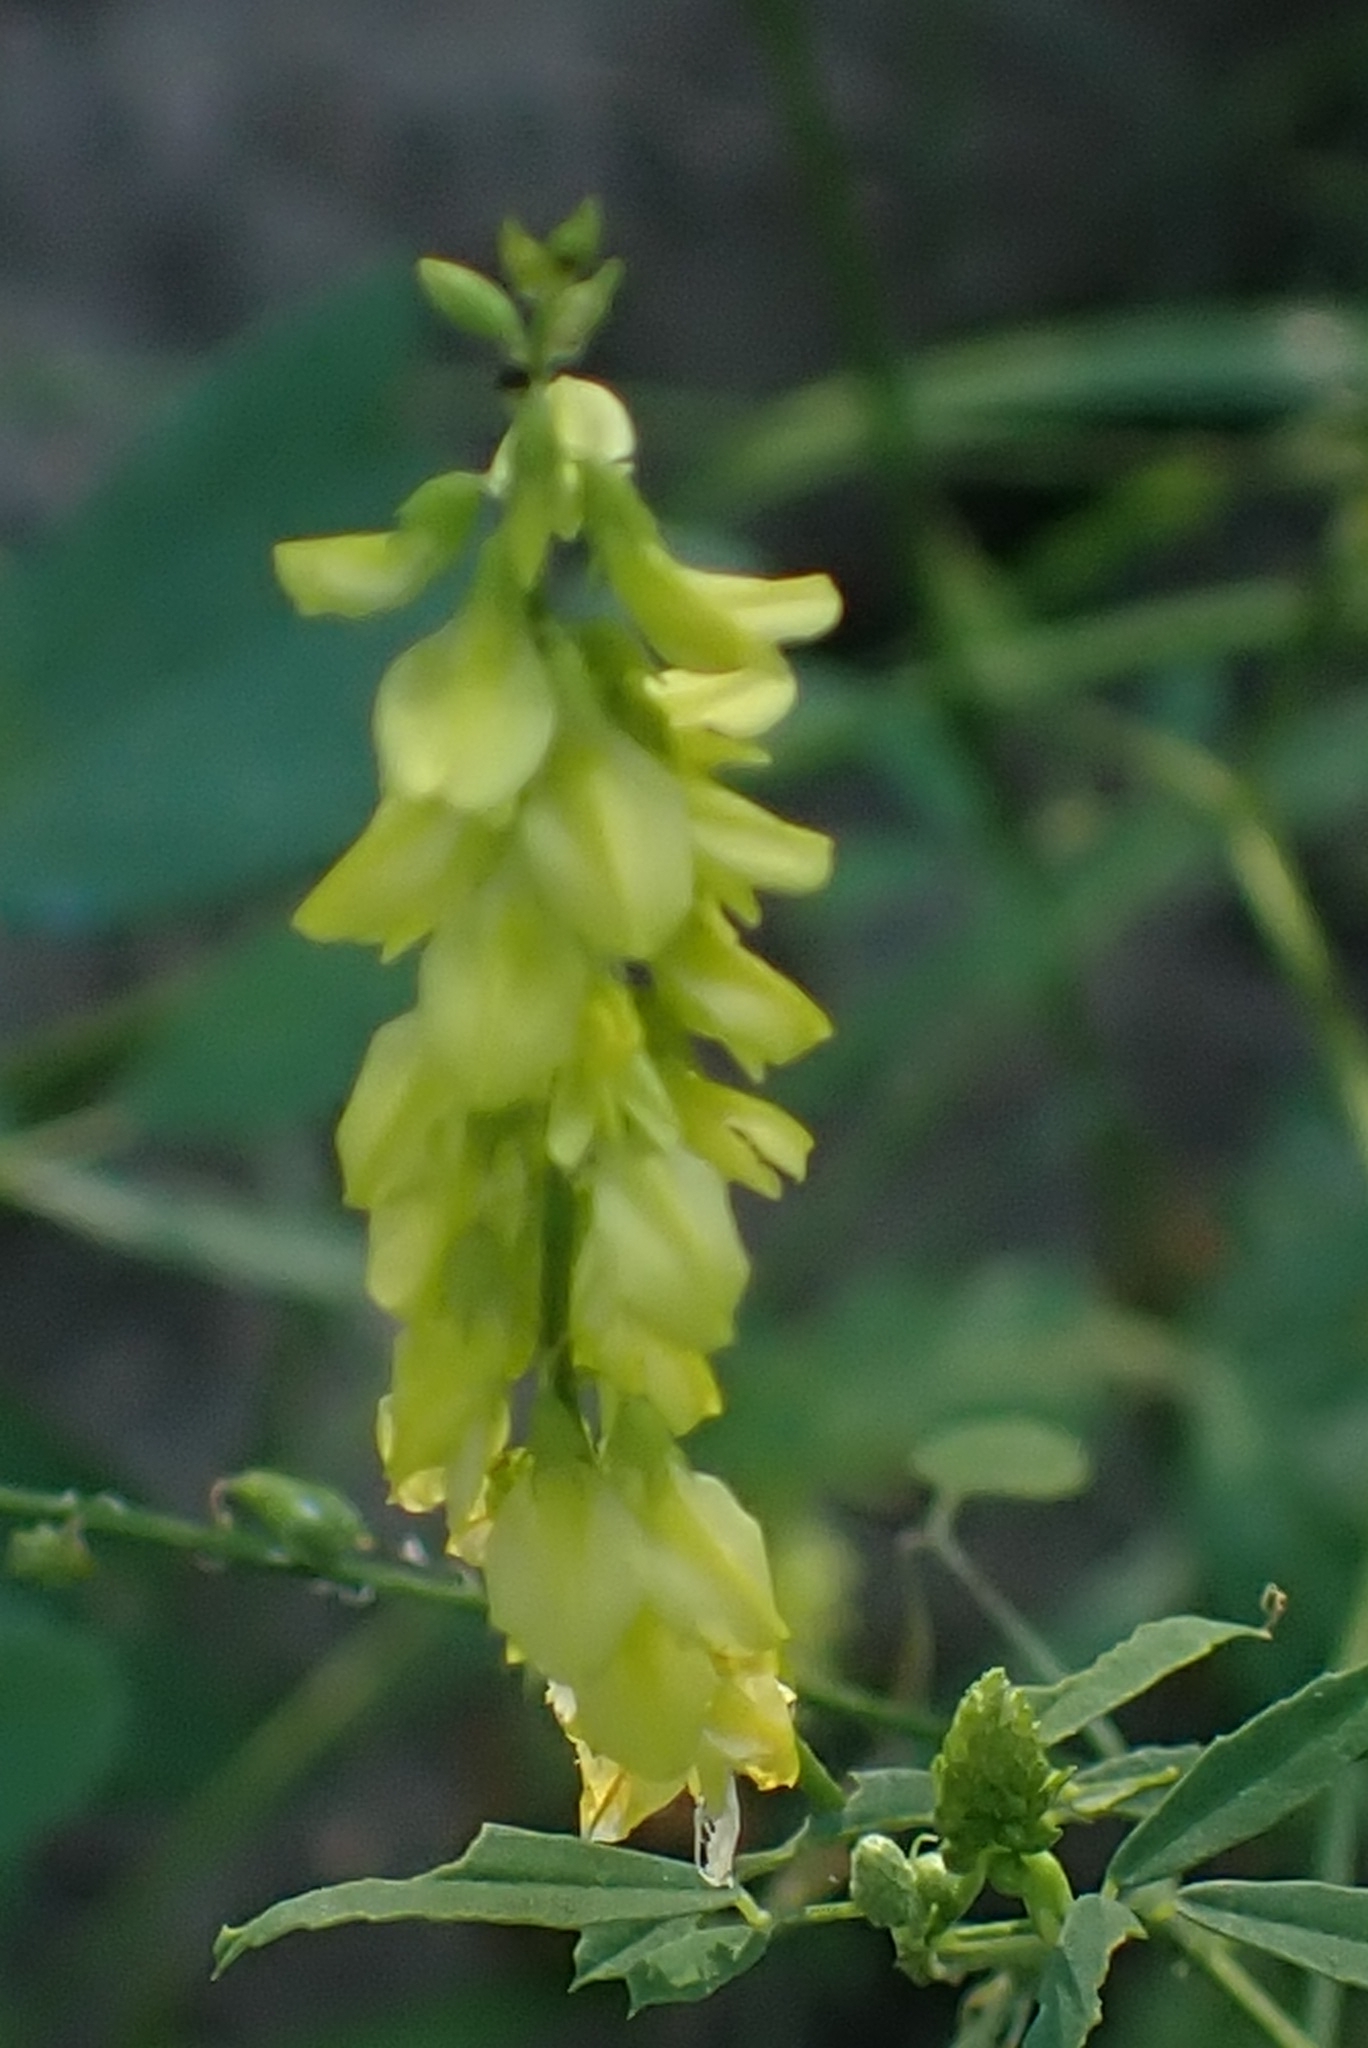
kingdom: Plantae
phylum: Tracheophyta
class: Magnoliopsida
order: Fabales
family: Fabaceae
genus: Melilotus
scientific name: Melilotus officinalis
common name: Sweetclover
